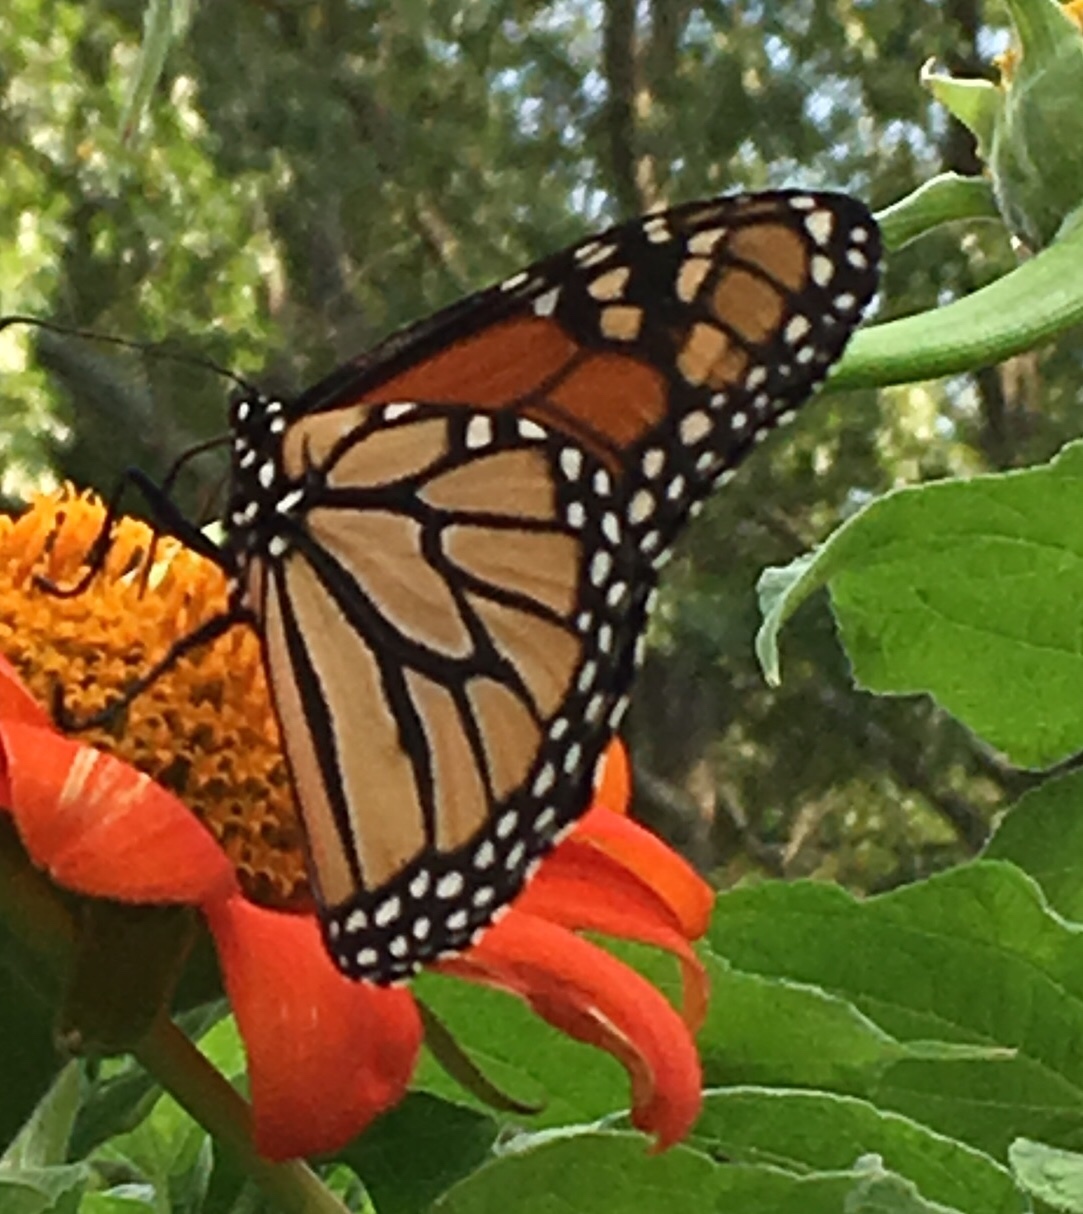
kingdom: Animalia
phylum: Arthropoda
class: Insecta
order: Lepidoptera
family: Nymphalidae
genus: Danaus
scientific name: Danaus plexippus
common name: Monarch
